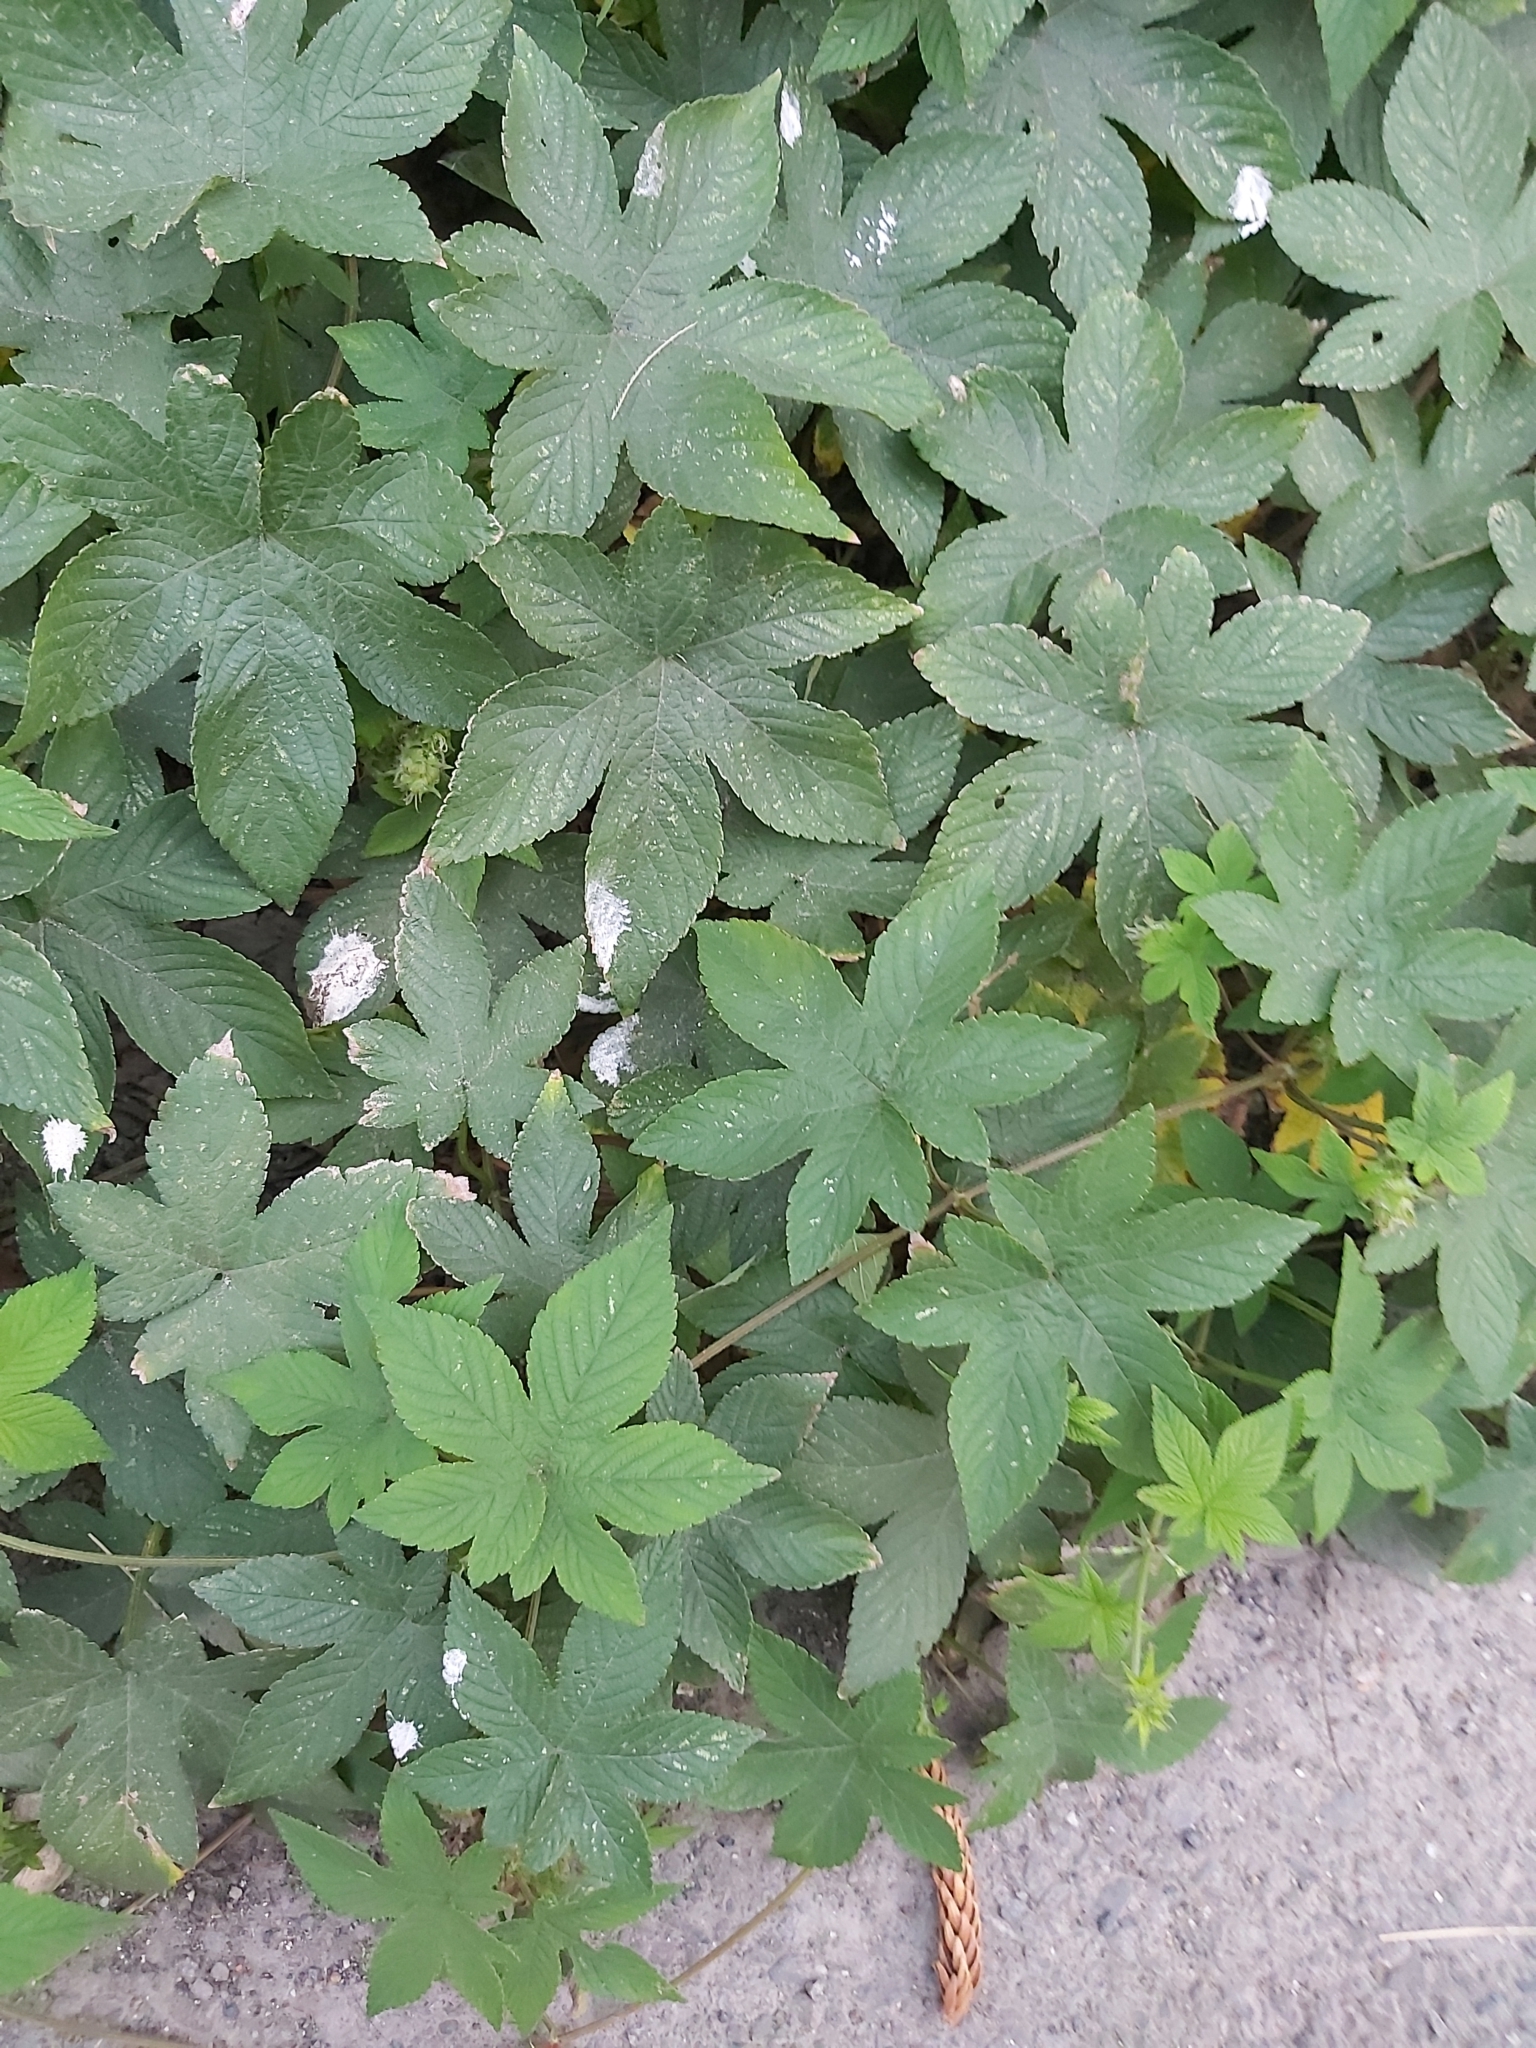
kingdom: Plantae
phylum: Tracheophyta
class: Magnoliopsida
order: Rosales
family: Cannabaceae
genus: Humulus
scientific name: Humulus scandens
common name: Japanese hop
